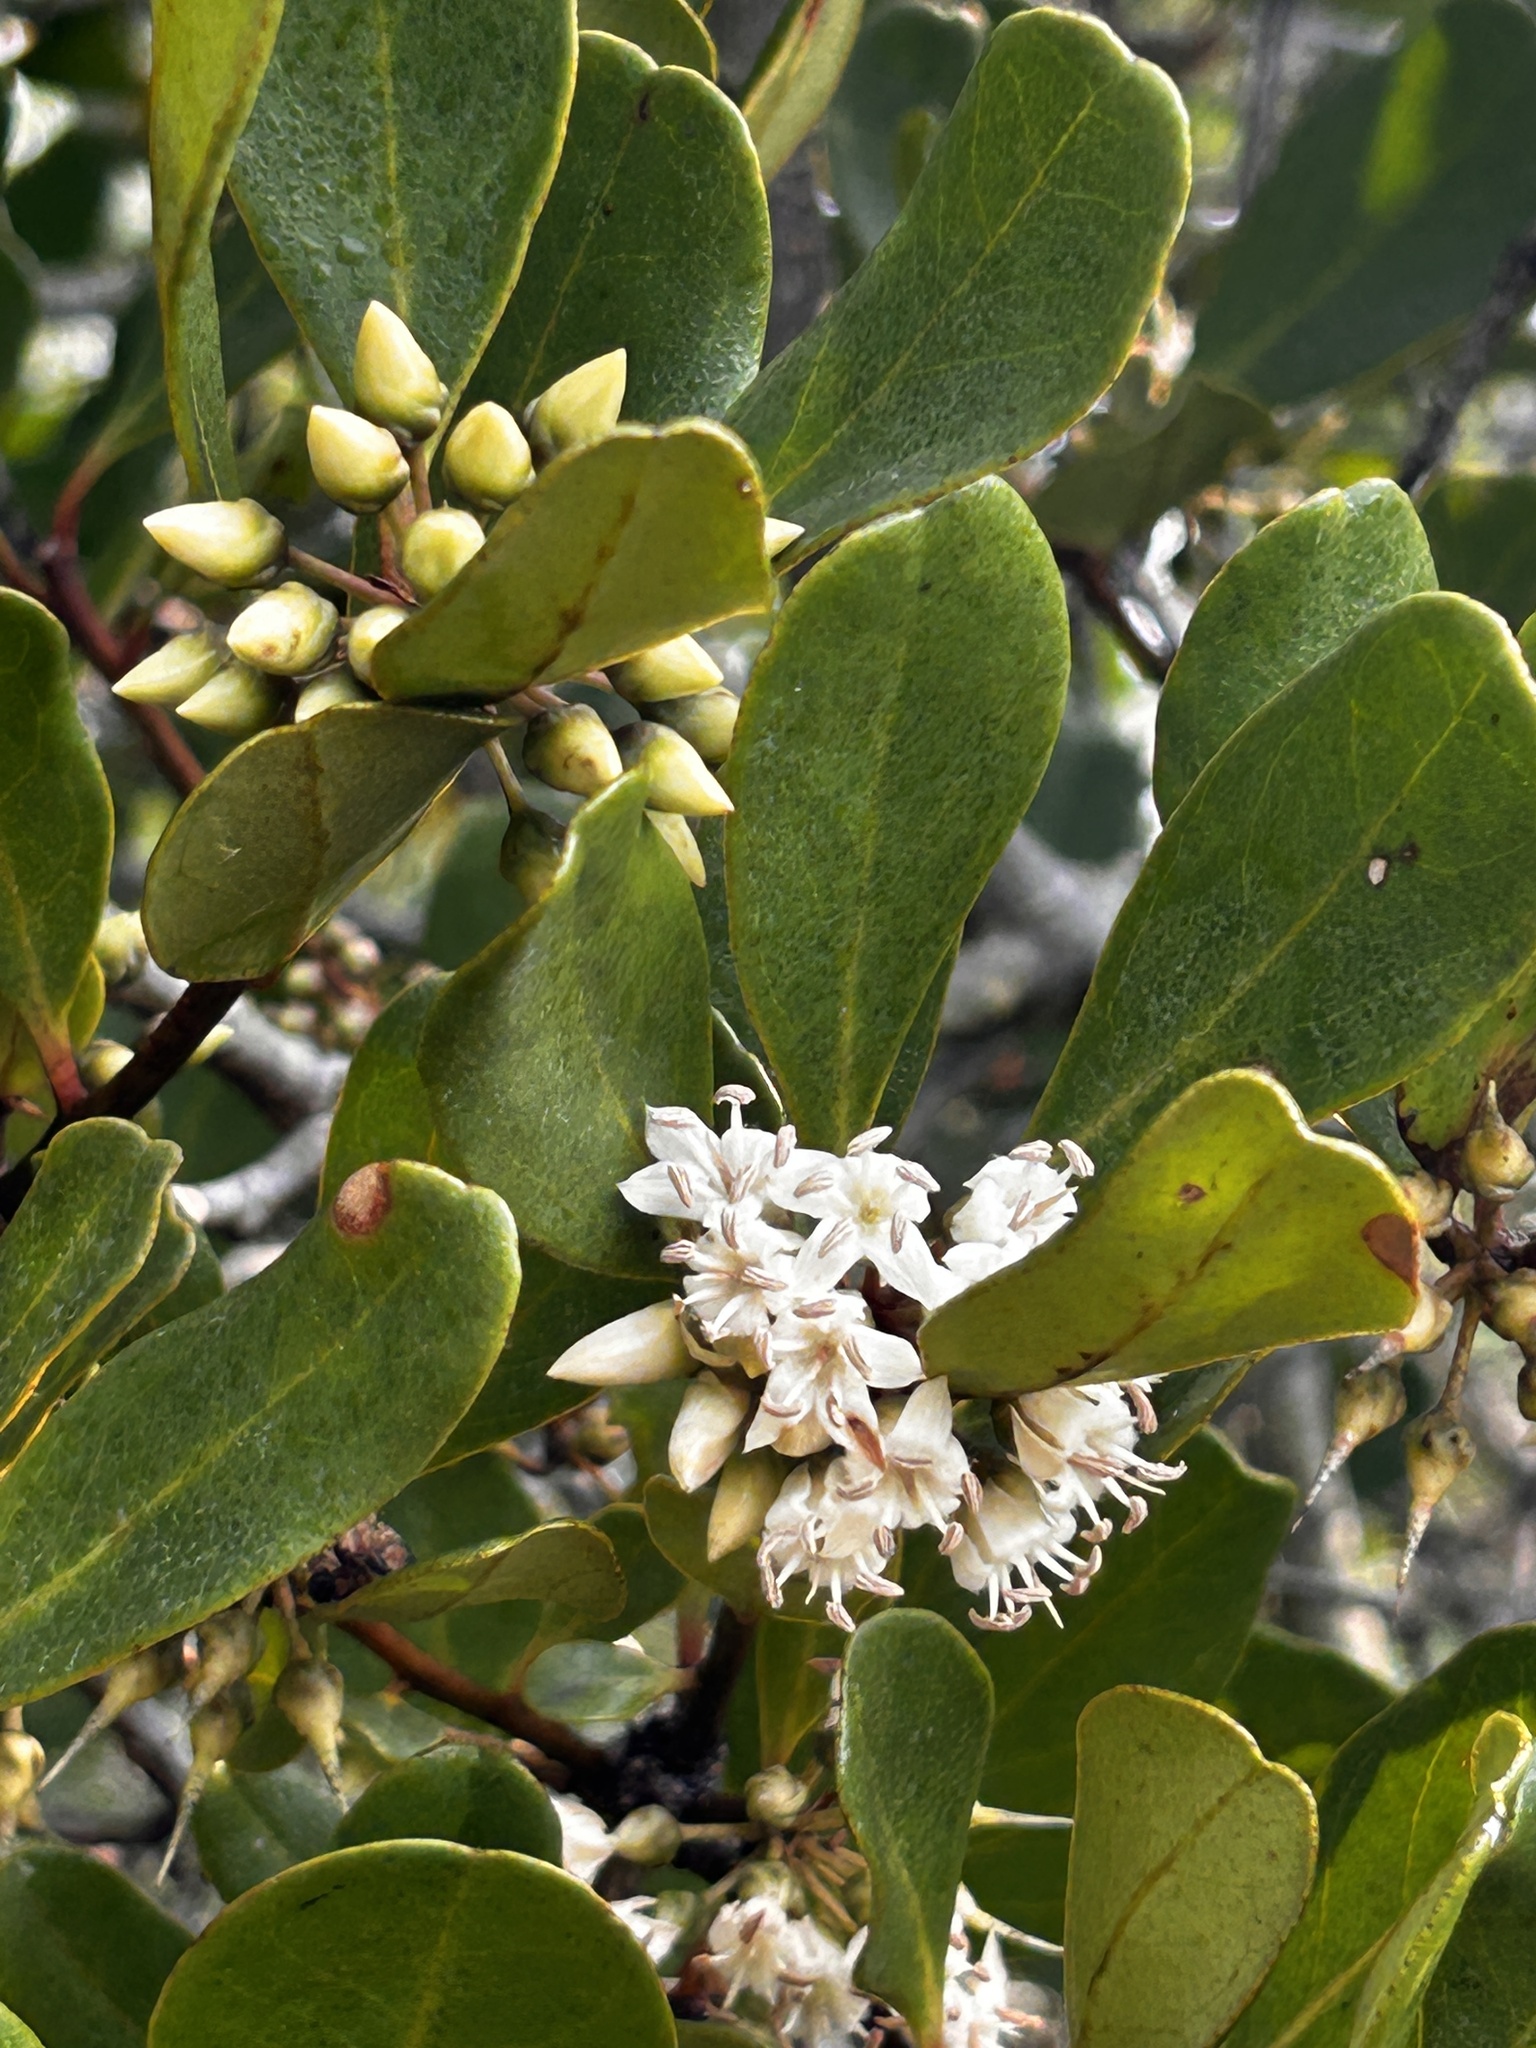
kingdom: Plantae
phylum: Tracheophyta
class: Magnoliopsida
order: Ericales
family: Primulaceae
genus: Aegiceras
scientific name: Aegiceras corniculatum
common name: River mangrove
